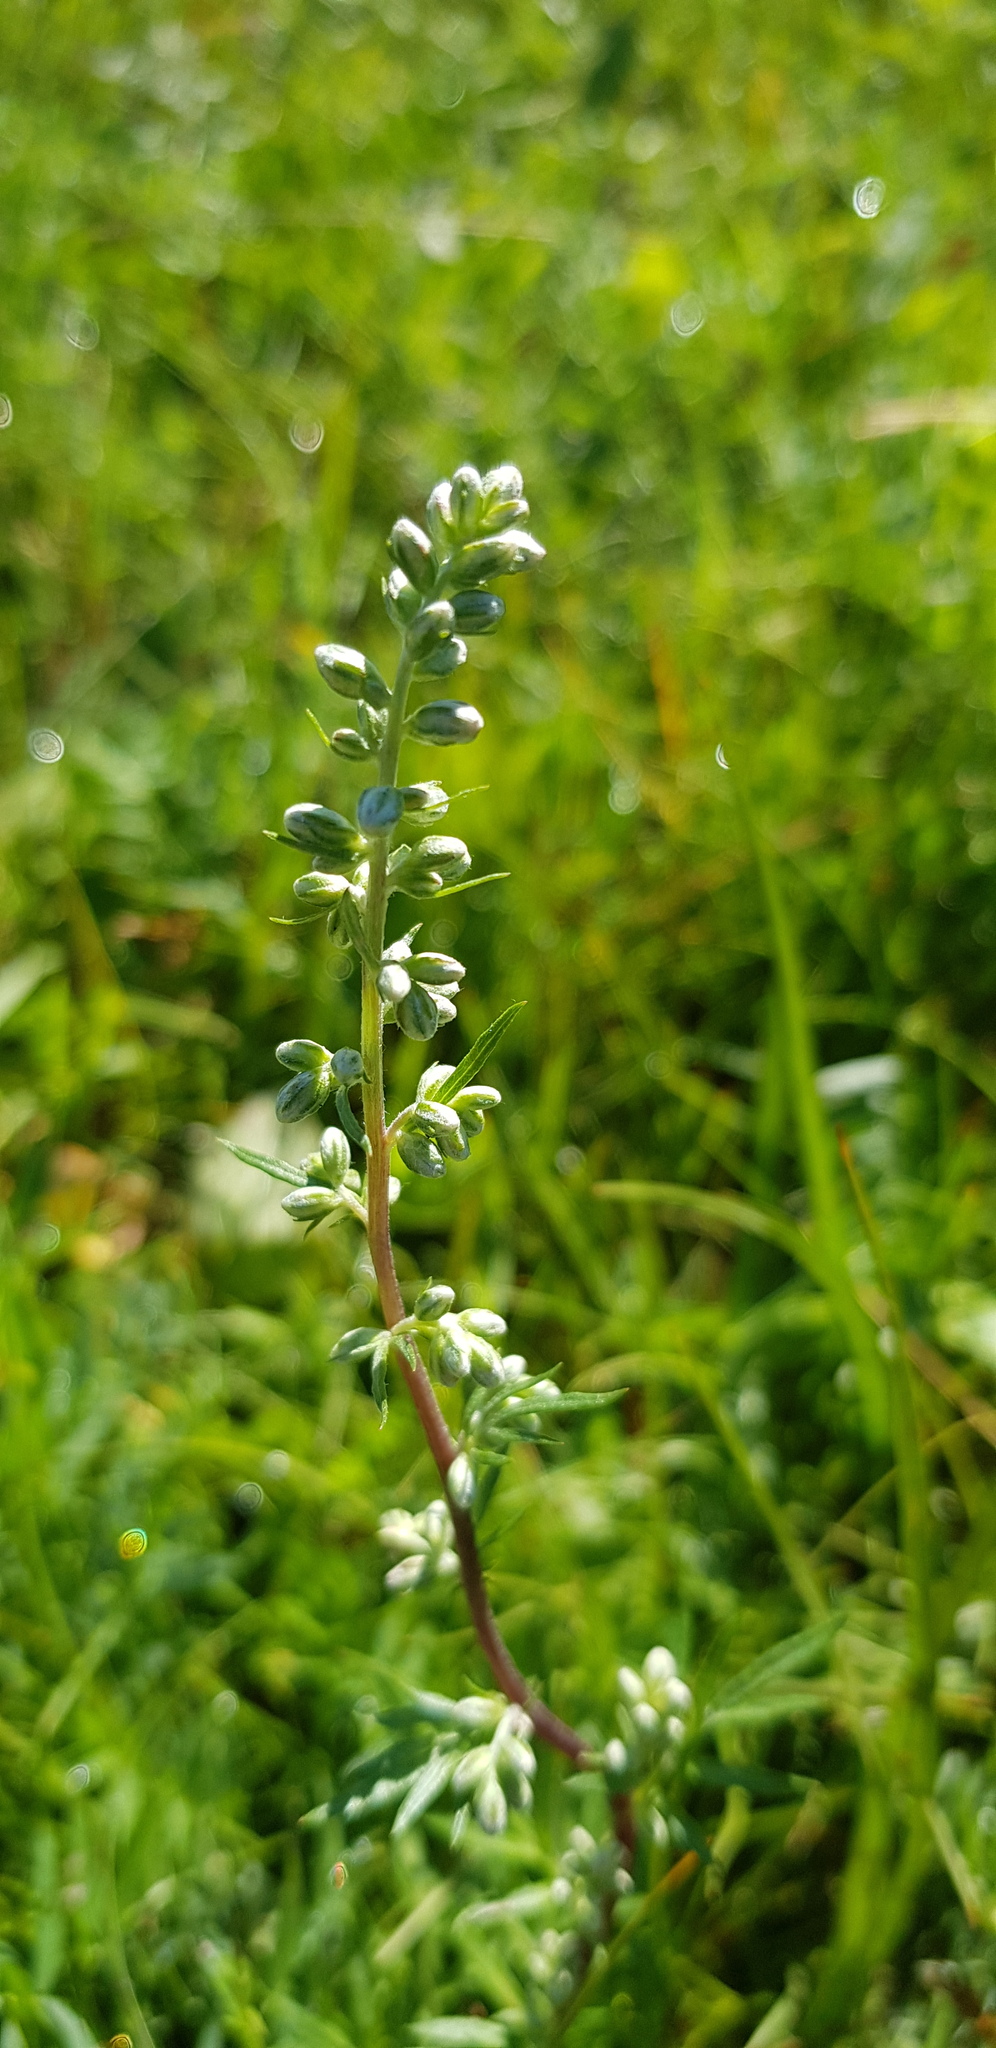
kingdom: Plantae
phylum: Tracheophyta
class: Magnoliopsida
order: Asterales
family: Asteraceae
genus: Artemisia
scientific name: Artemisia vulgaris
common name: Mugwort
